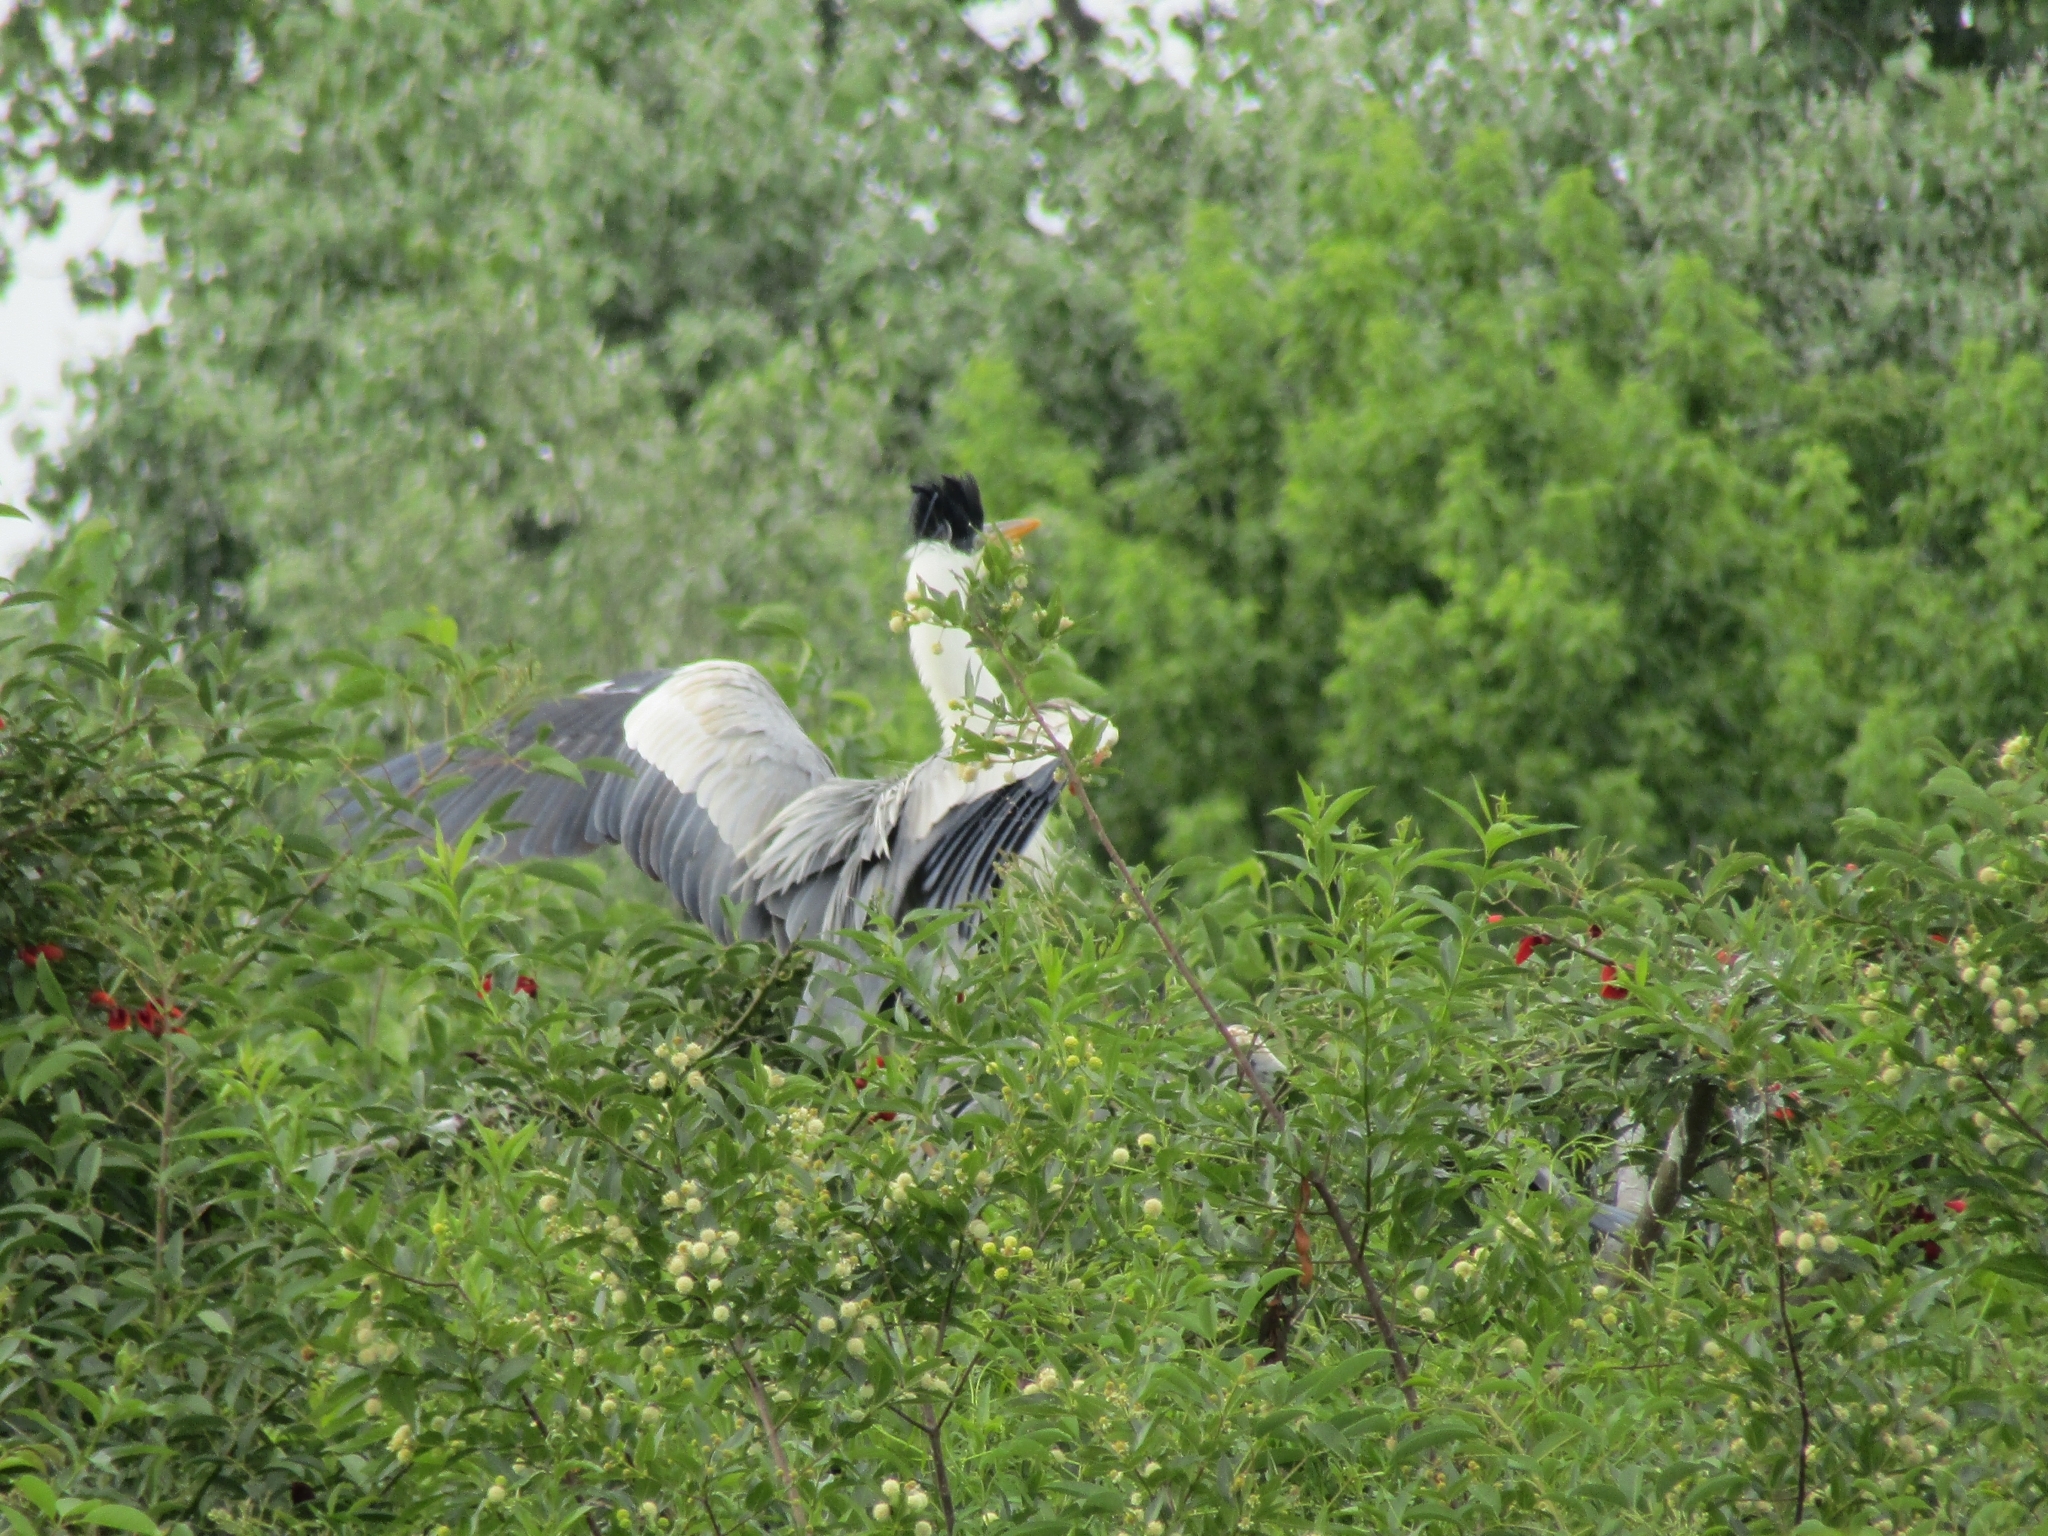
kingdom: Animalia
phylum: Chordata
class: Aves
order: Pelecaniformes
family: Ardeidae
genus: Ardea
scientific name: Ardea cocoi
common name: Cocoi heron
